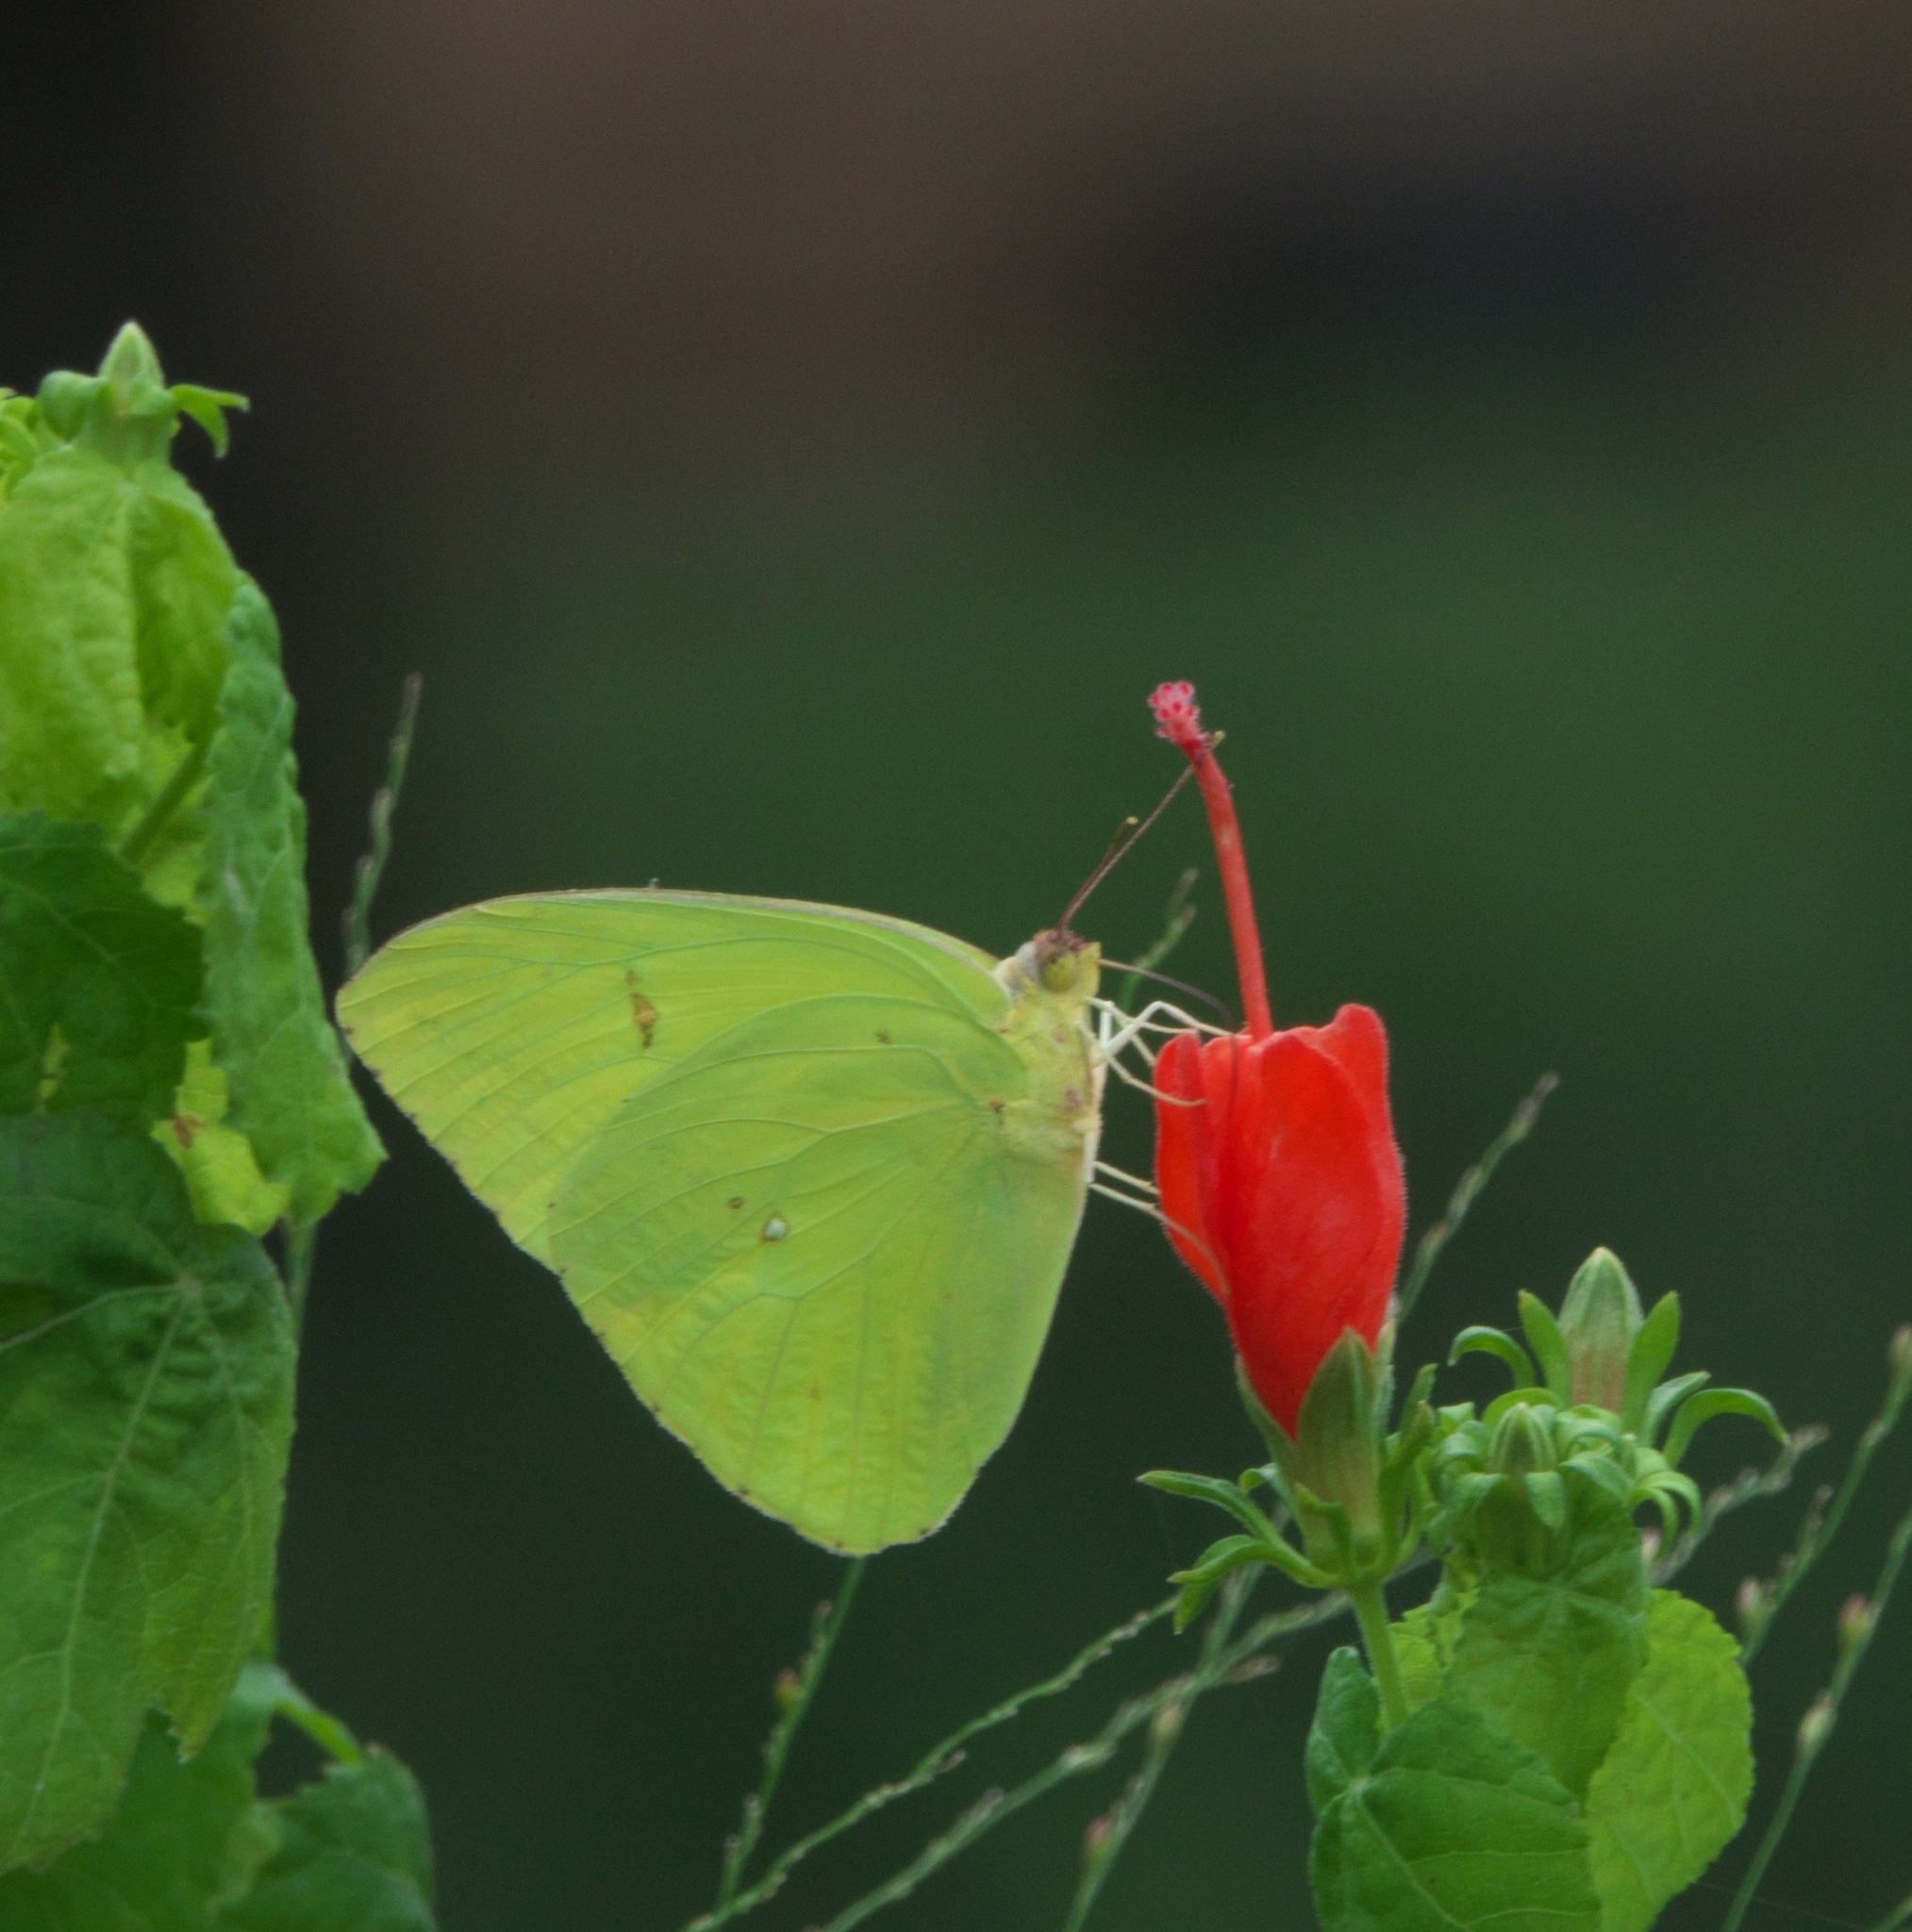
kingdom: Animalia
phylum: Arthropoda
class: Insecta
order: Lepidoptera
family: Pieridae
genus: Phoebis
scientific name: Phoebis sennae
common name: Cloudless sulphur
